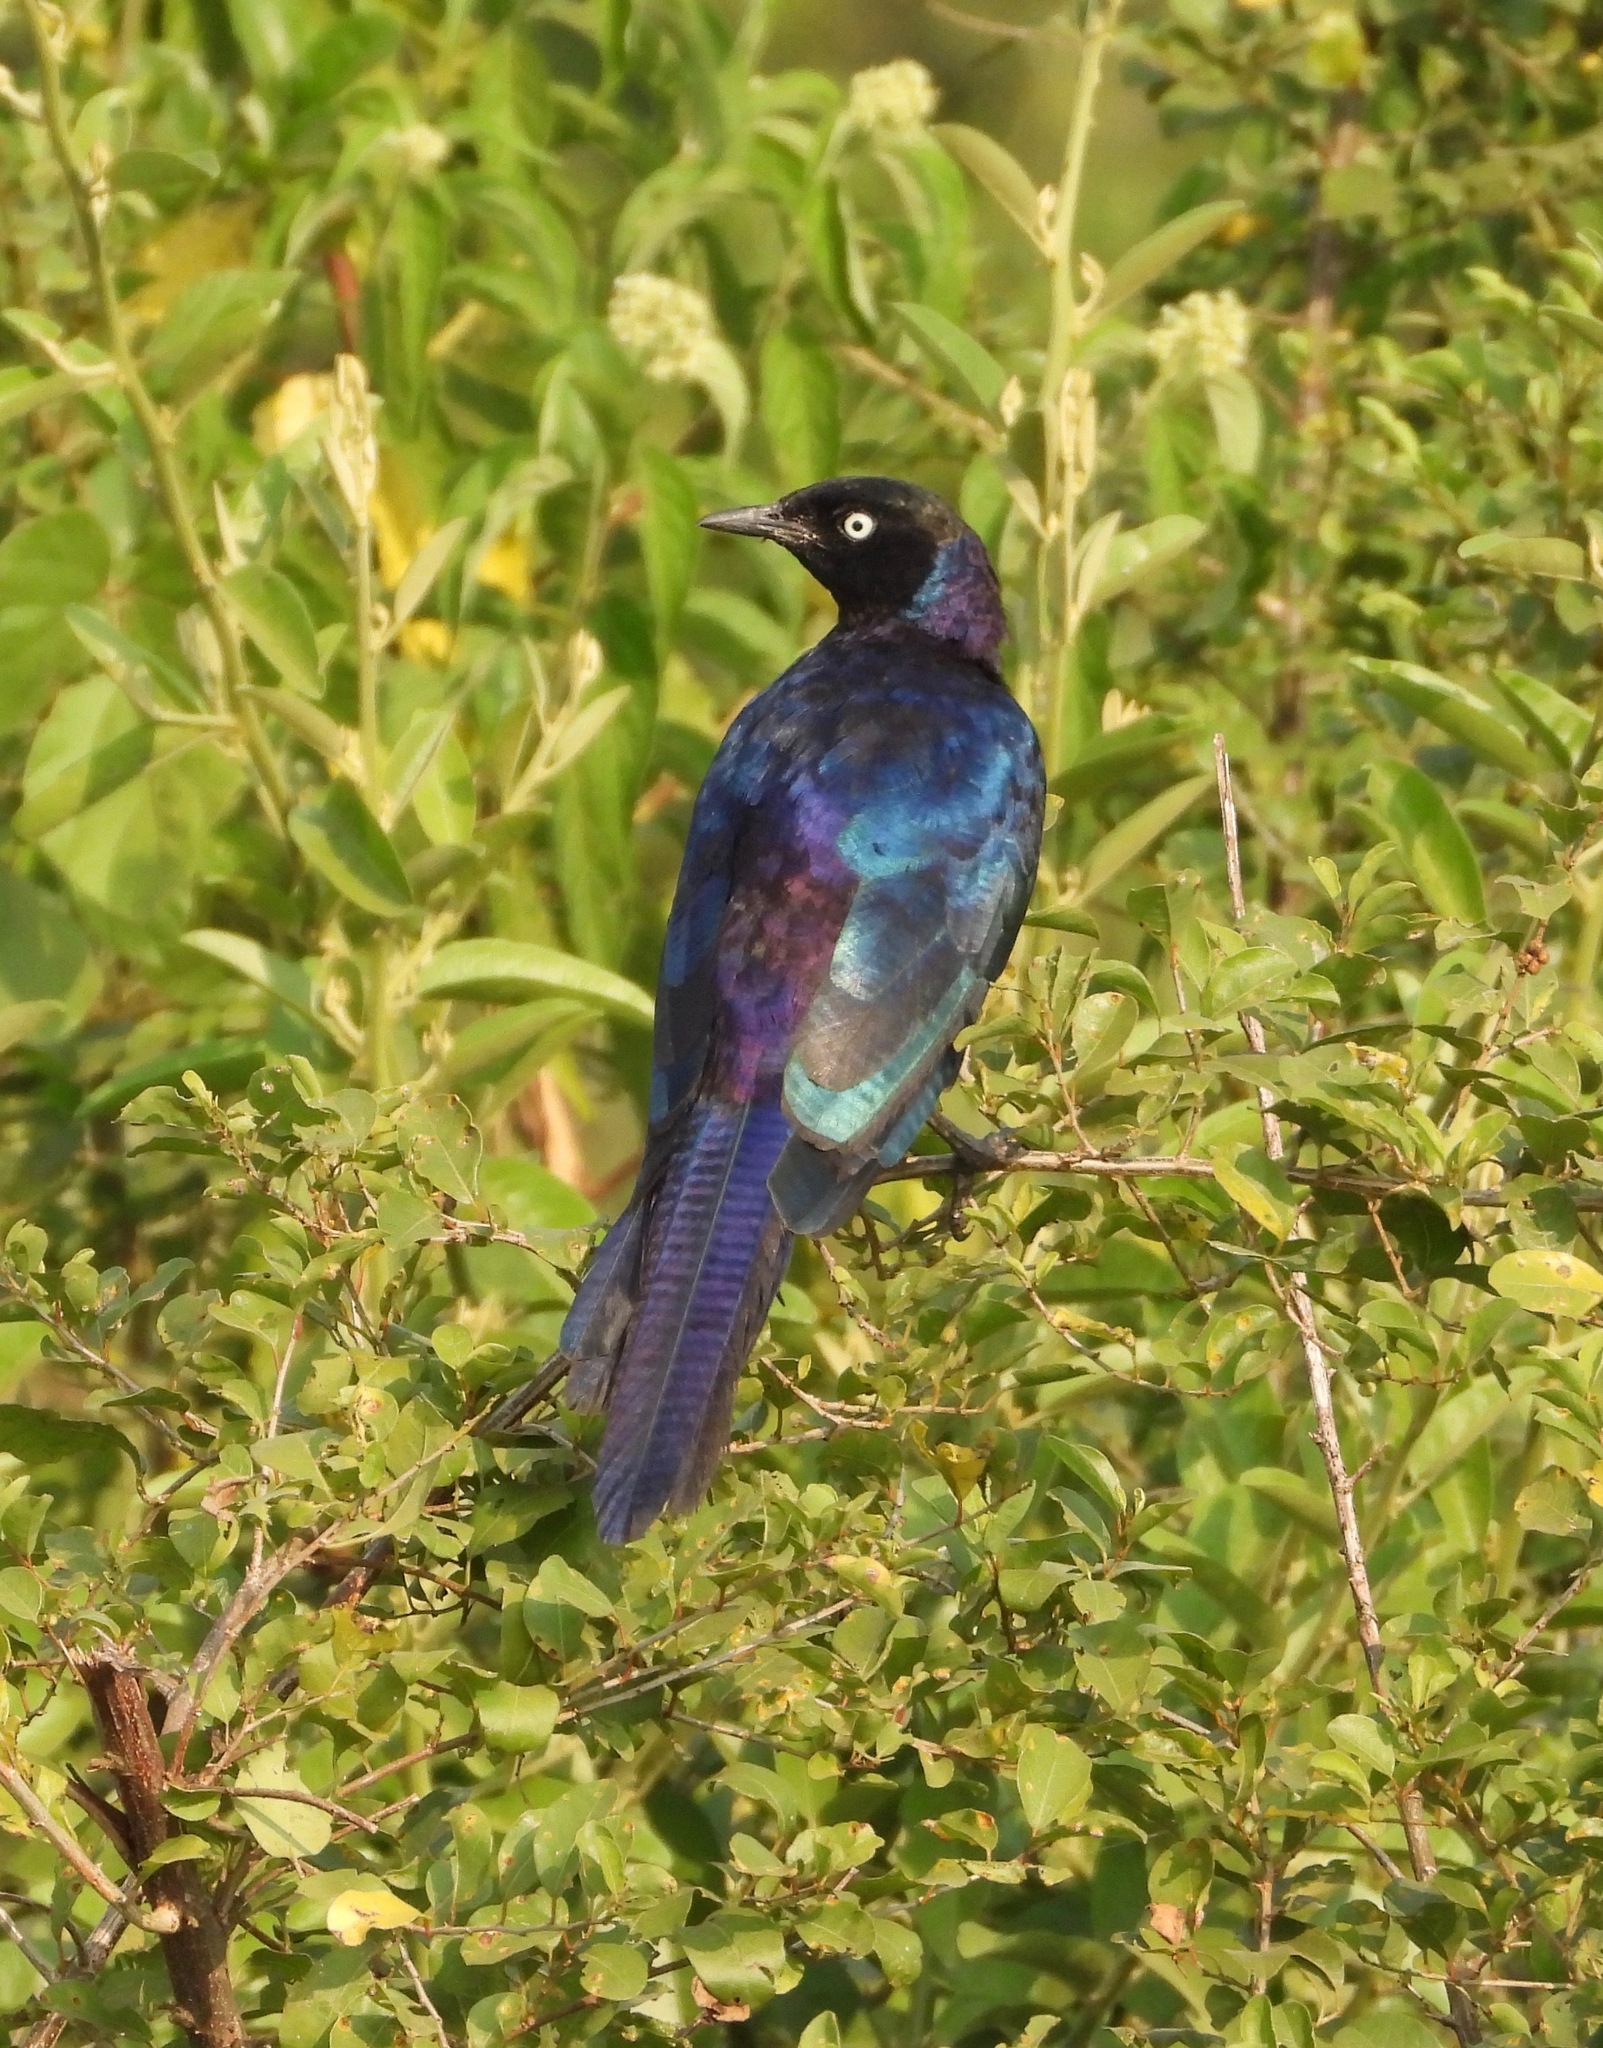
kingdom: Animalia
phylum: Chordata
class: Aves
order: Passeriformes
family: Sturnidae
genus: Lamprotornis
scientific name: Lamprotornis purpuroptera
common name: Rüppell's starling
